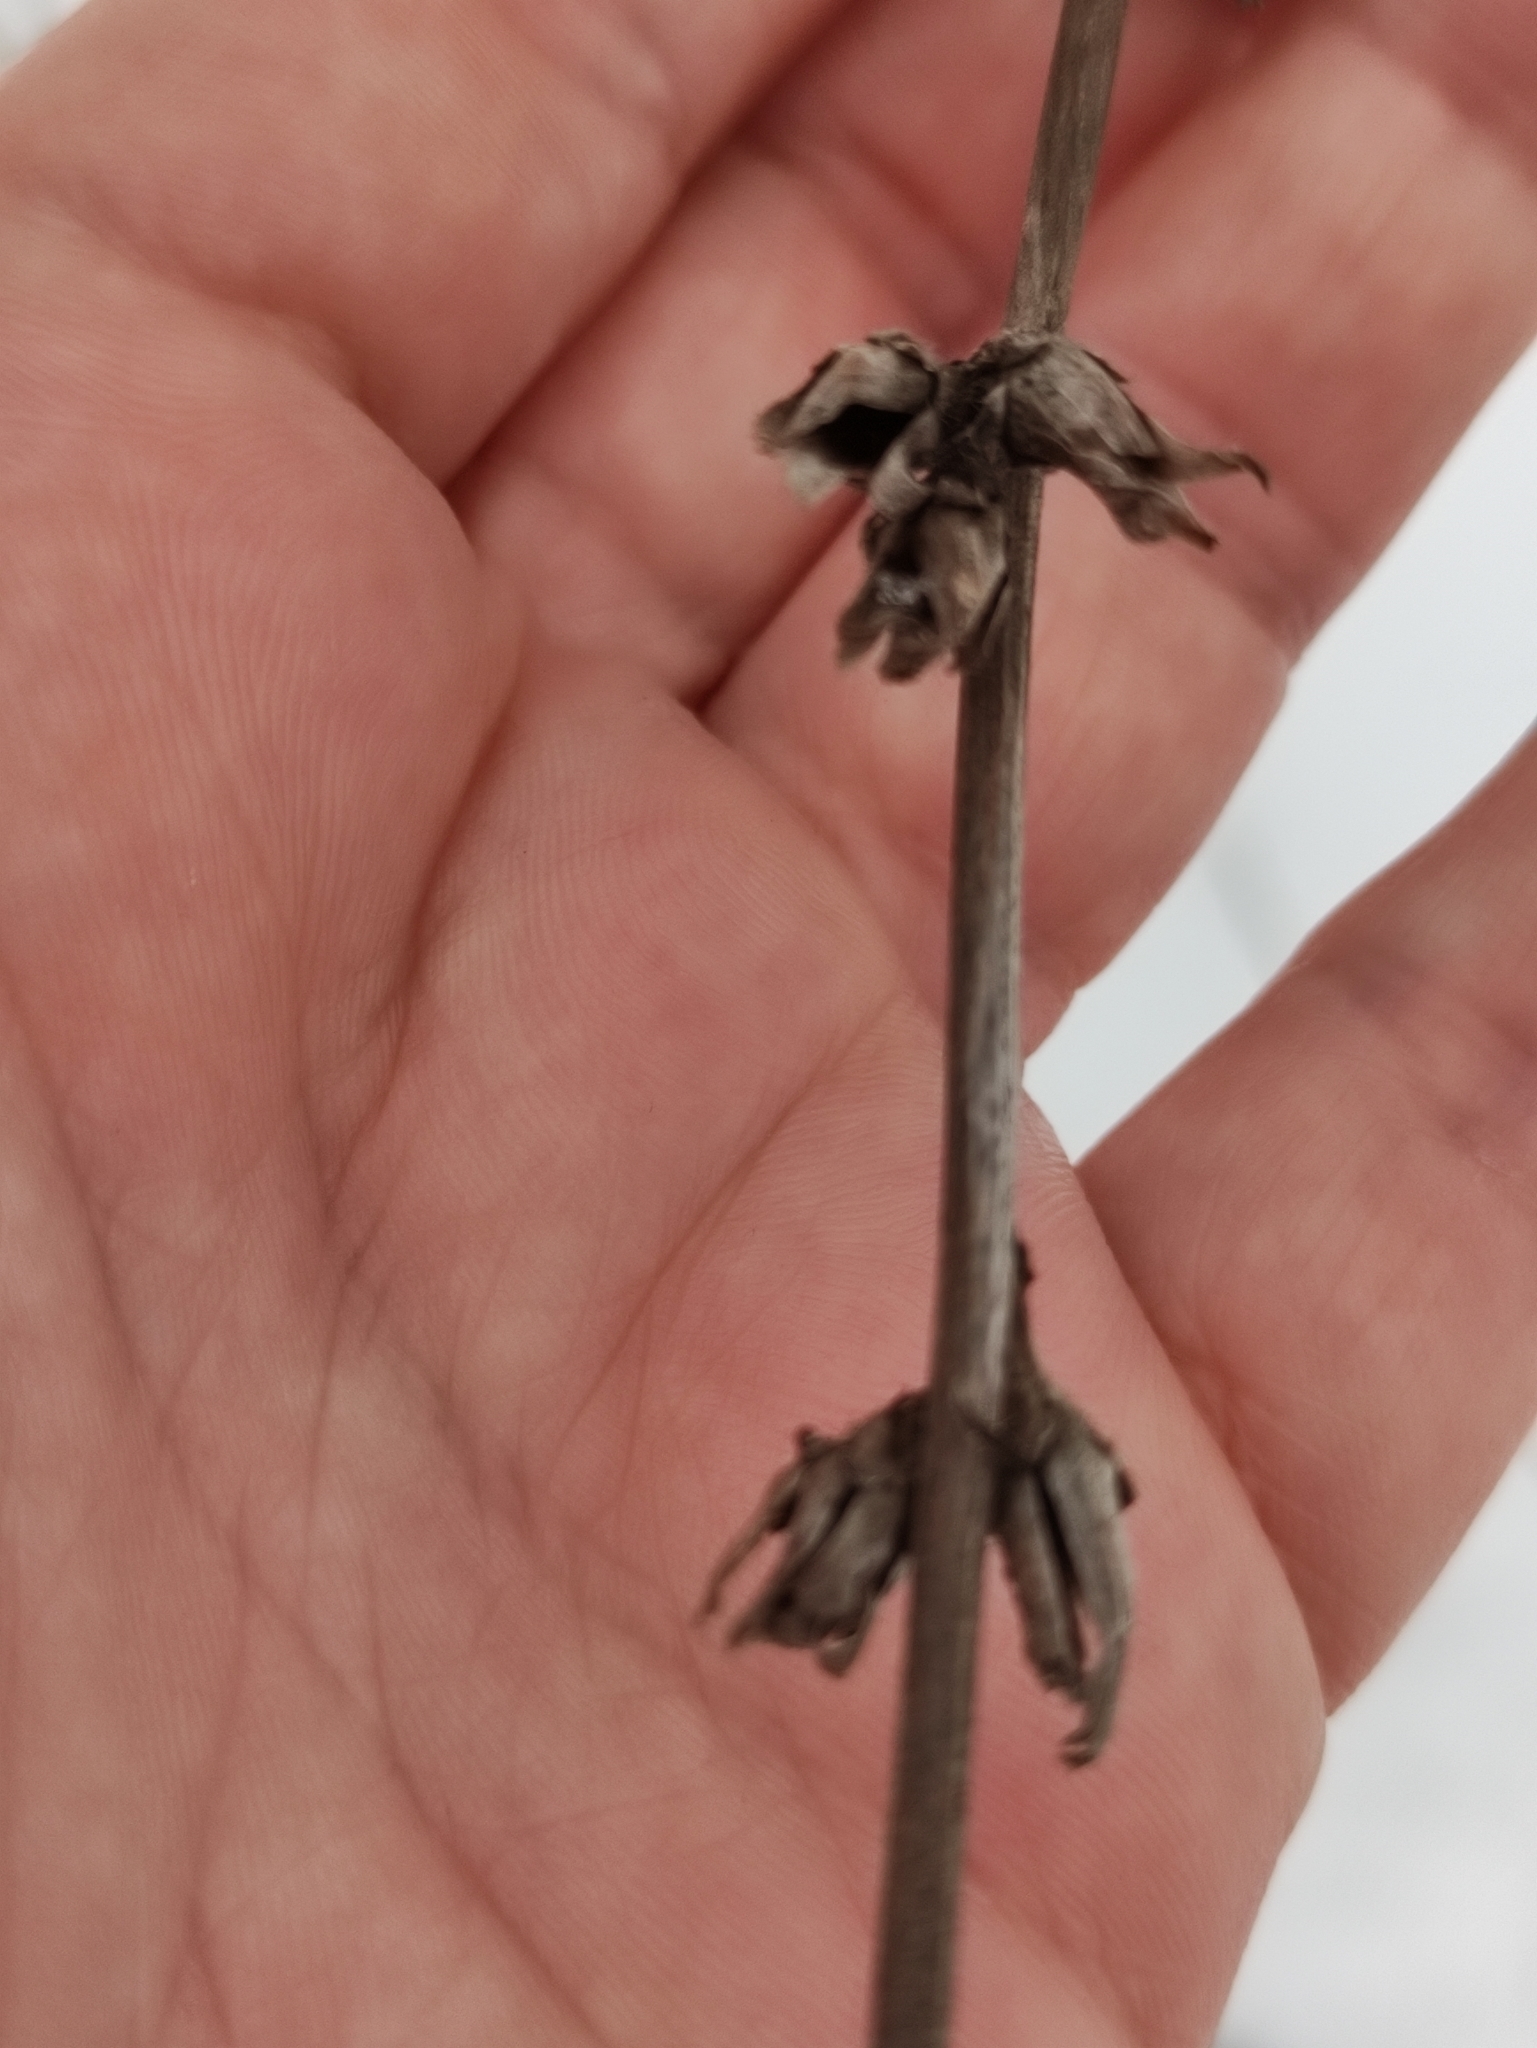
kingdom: Plantae
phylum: Tracheophyta
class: Magnoliopsida
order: Asterales
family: Asteraceae
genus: Cichorium
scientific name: Cichorium intybus
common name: Chicory
